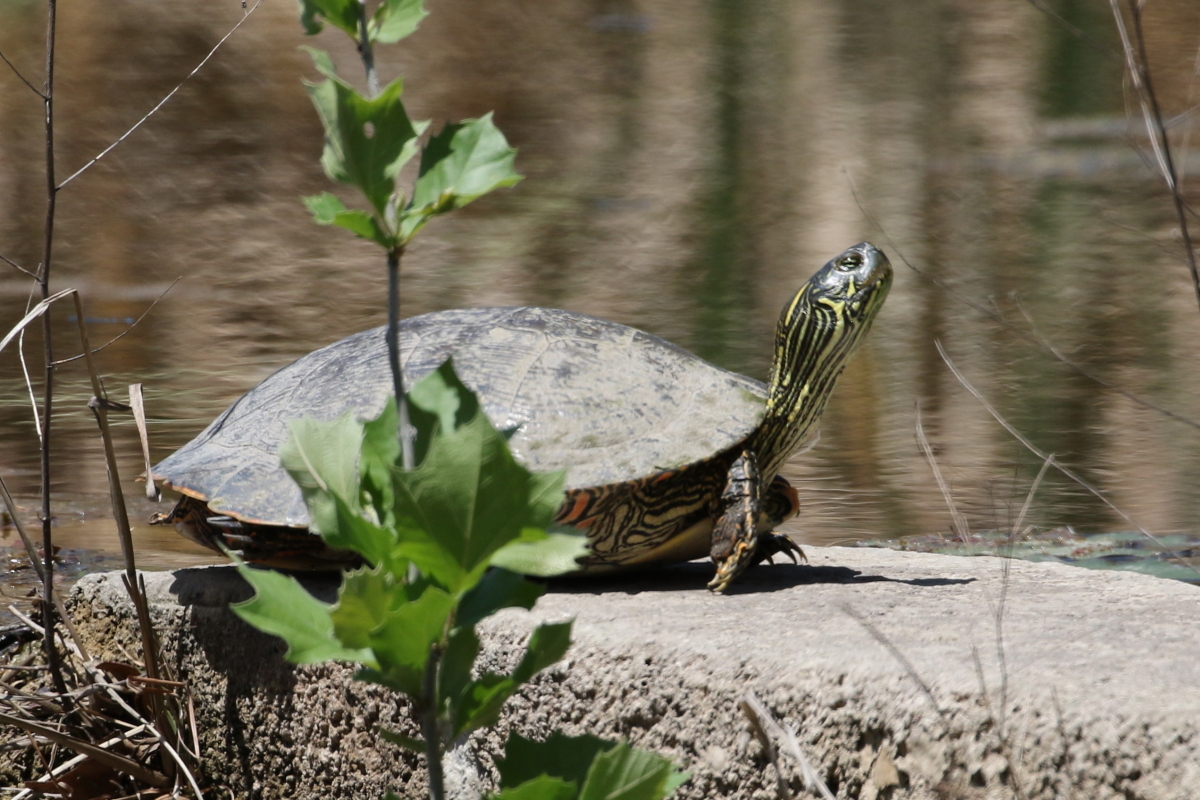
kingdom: Animalia
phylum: Chordata
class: Testudines
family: Emydidae
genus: Pseudemys
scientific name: Pseudemys texana
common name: Texas river cooter
